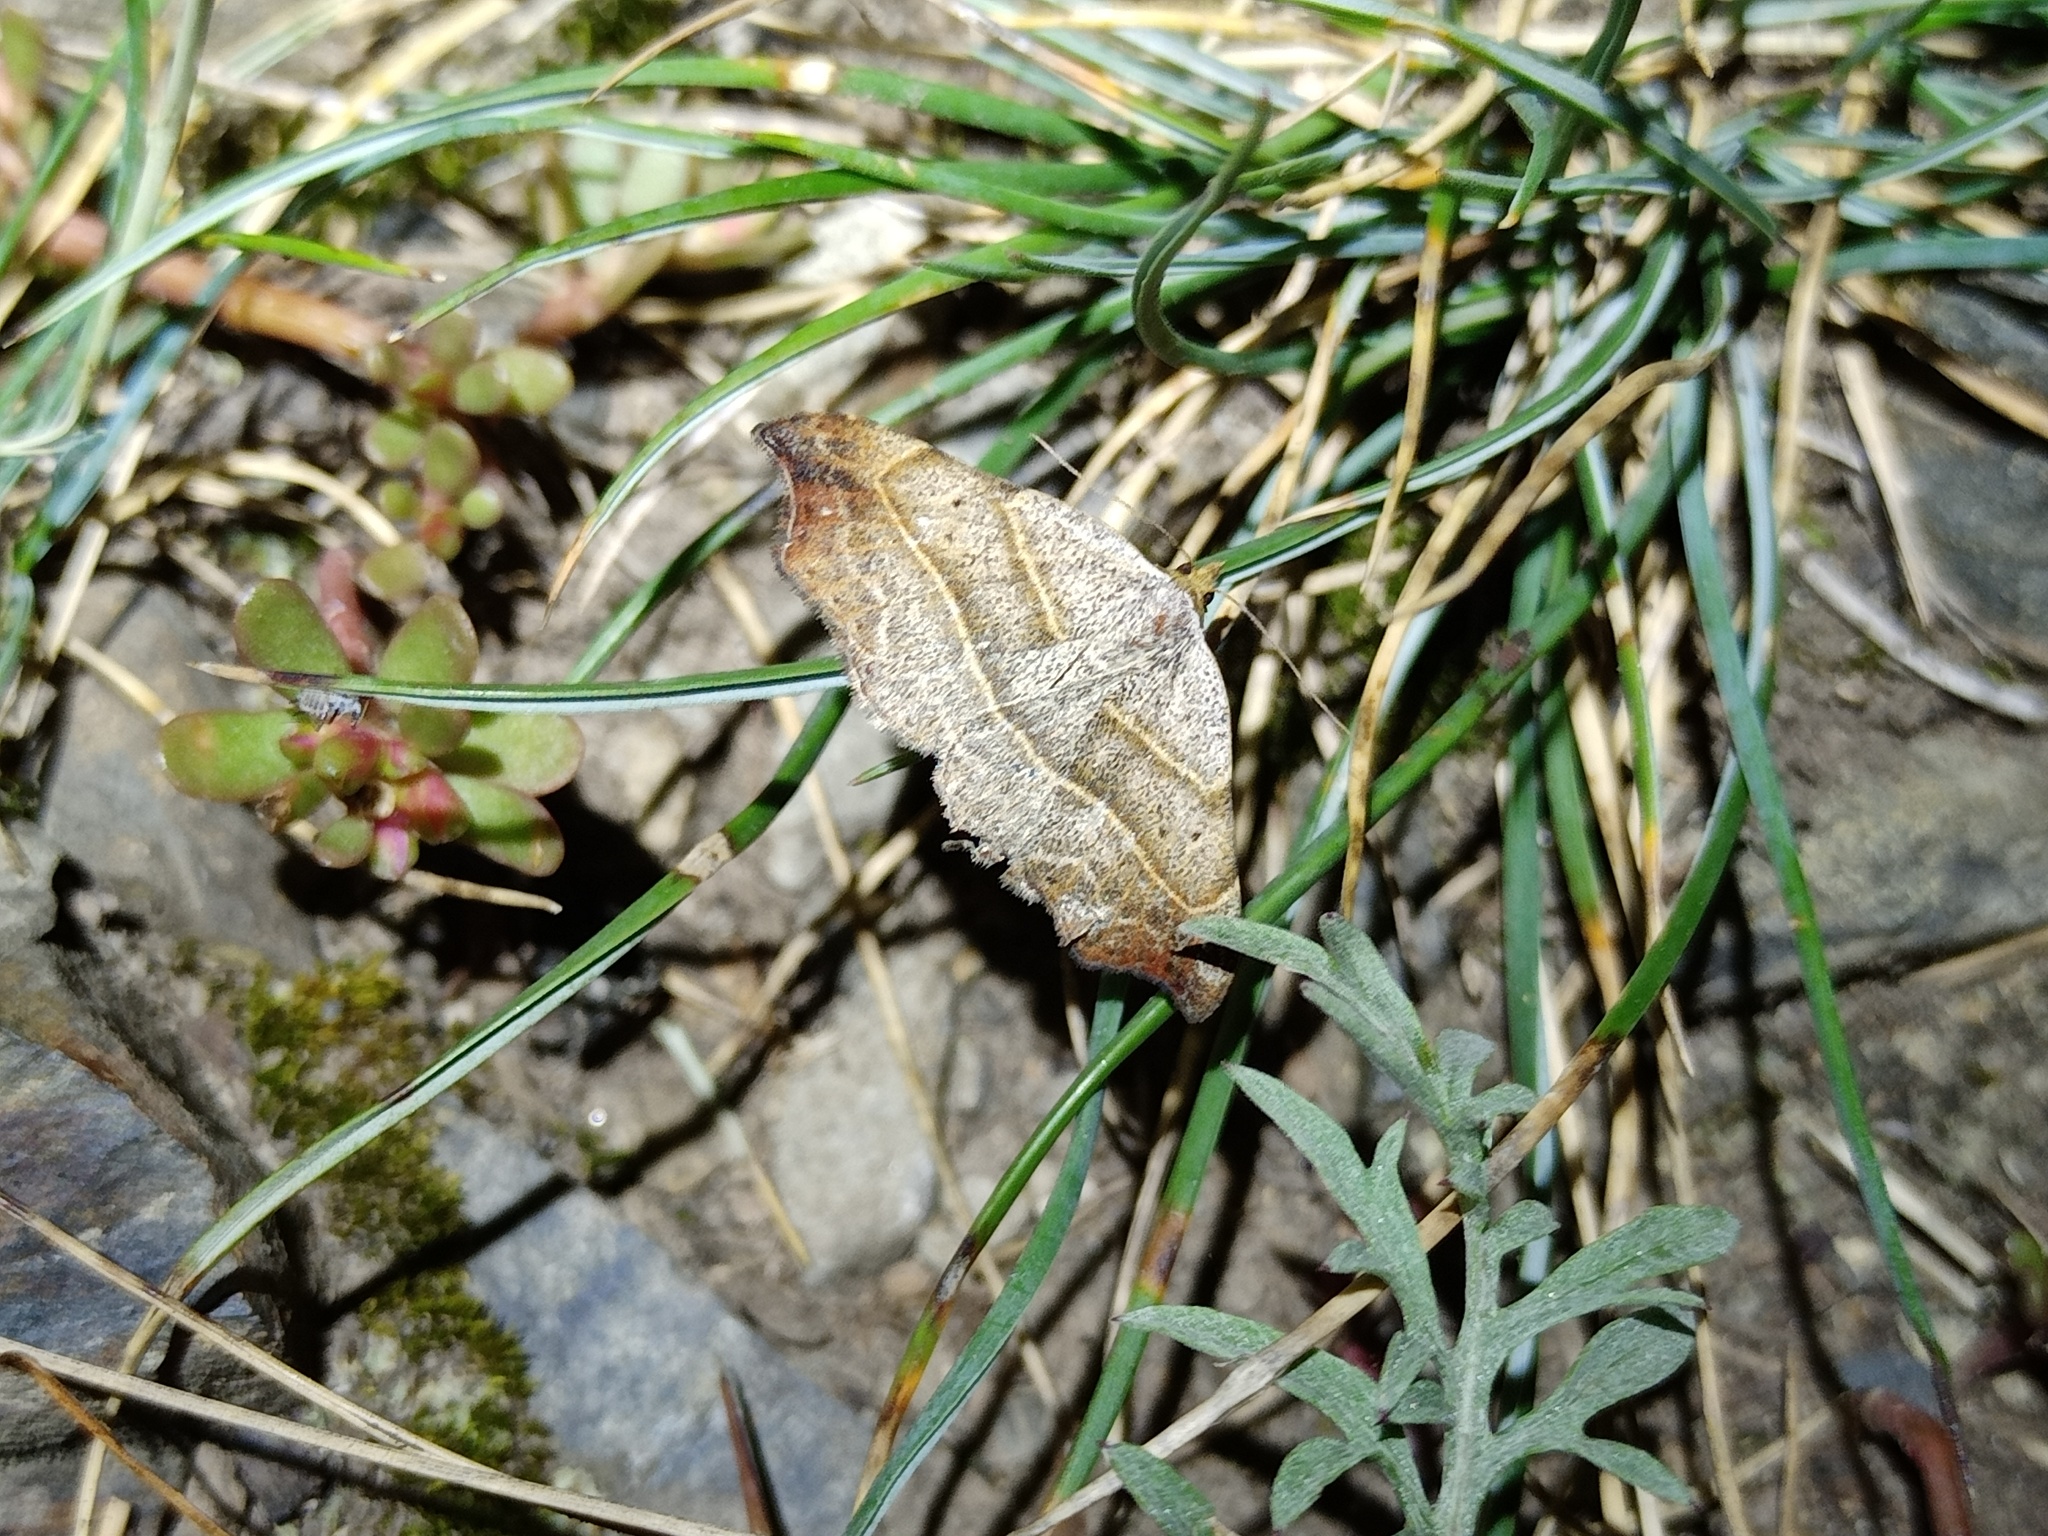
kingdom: Animalia
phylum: Arthropoda
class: Insecta
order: Lepidoptera
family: Erebidae
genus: Laspeyria
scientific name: Laspeyria flexula
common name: Beautiful hook-tip
